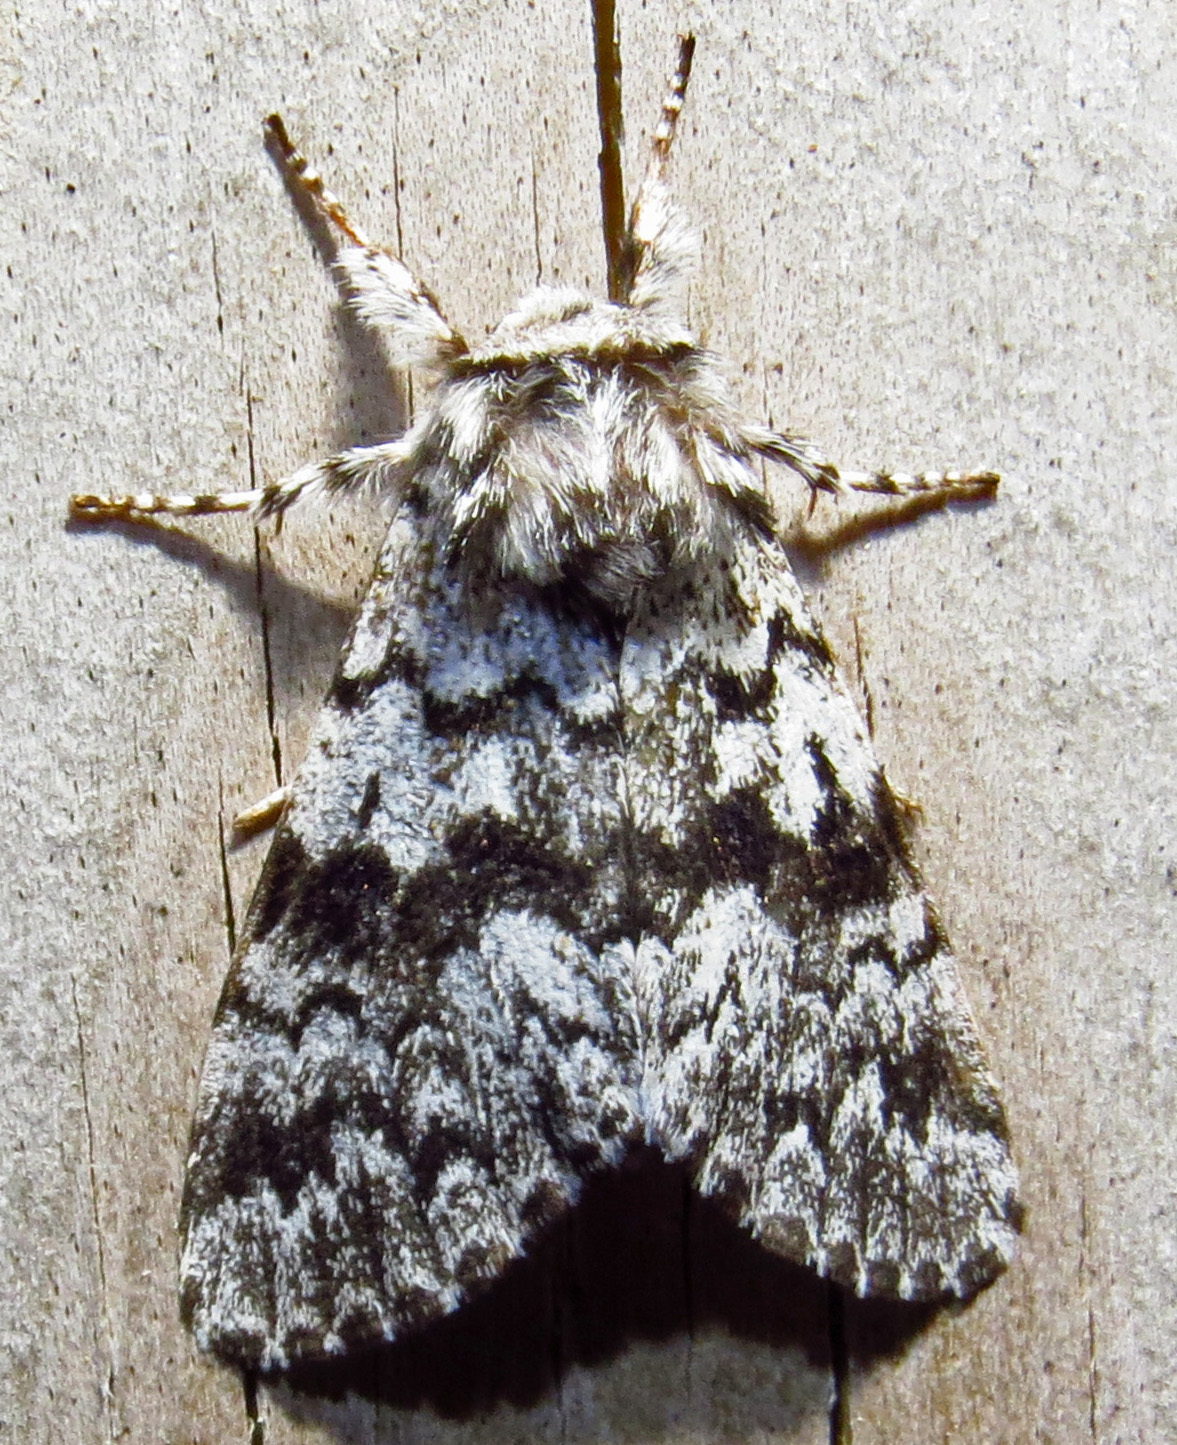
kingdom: Animalia
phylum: Arthropoda
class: Insecta
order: Lepidoptera
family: Noctuidae
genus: Panthea
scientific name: Panthea acronyctoides
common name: Black zigzag moth
